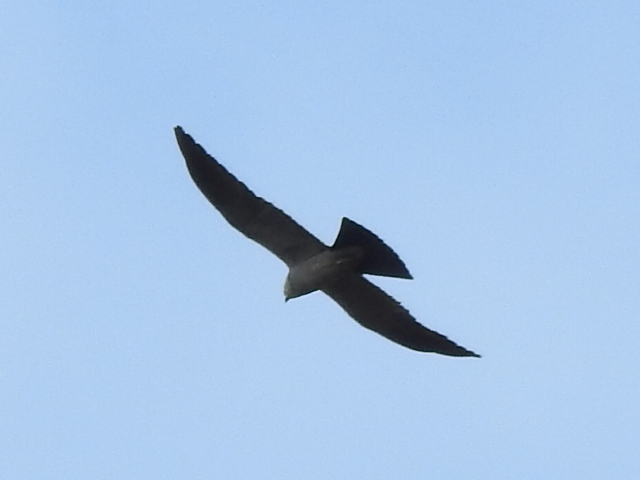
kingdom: Animalia
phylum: Chordata
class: Aves
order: Accipitriformes
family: Accipitridae
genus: Ictinia
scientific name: Ictinia mississippiensis
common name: Mississippi kite
